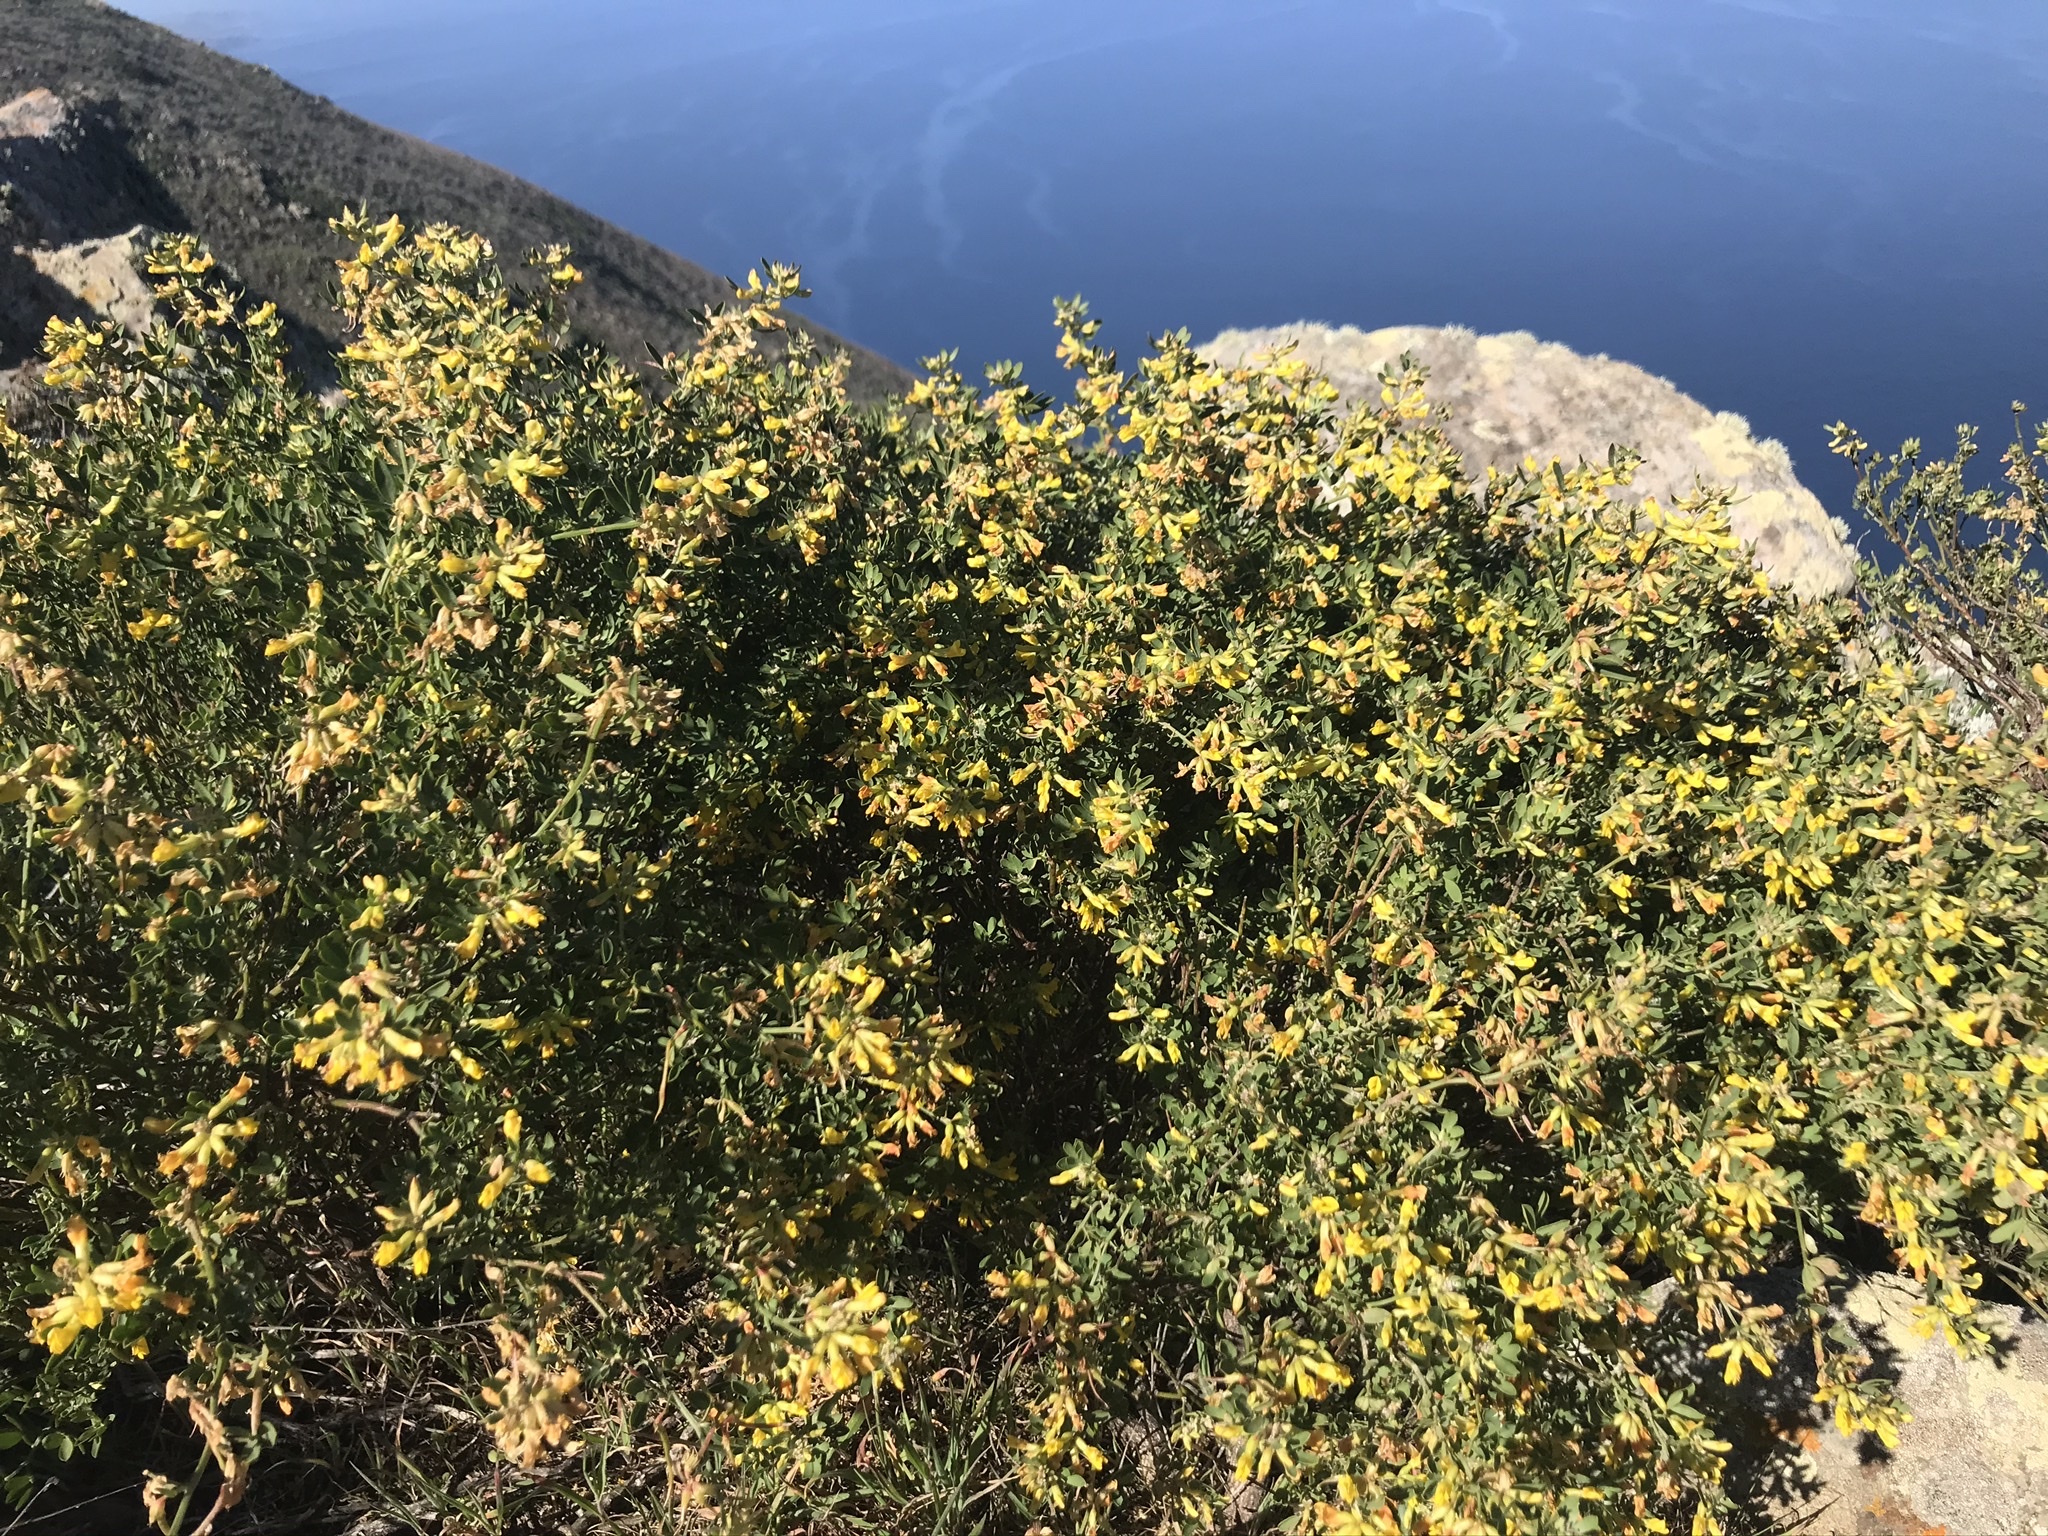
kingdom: Plantae
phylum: Tracheophyta
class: Magnoliopsida
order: Fabales
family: Fabaceae
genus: Acmispon
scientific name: Acmispon dendroideus
